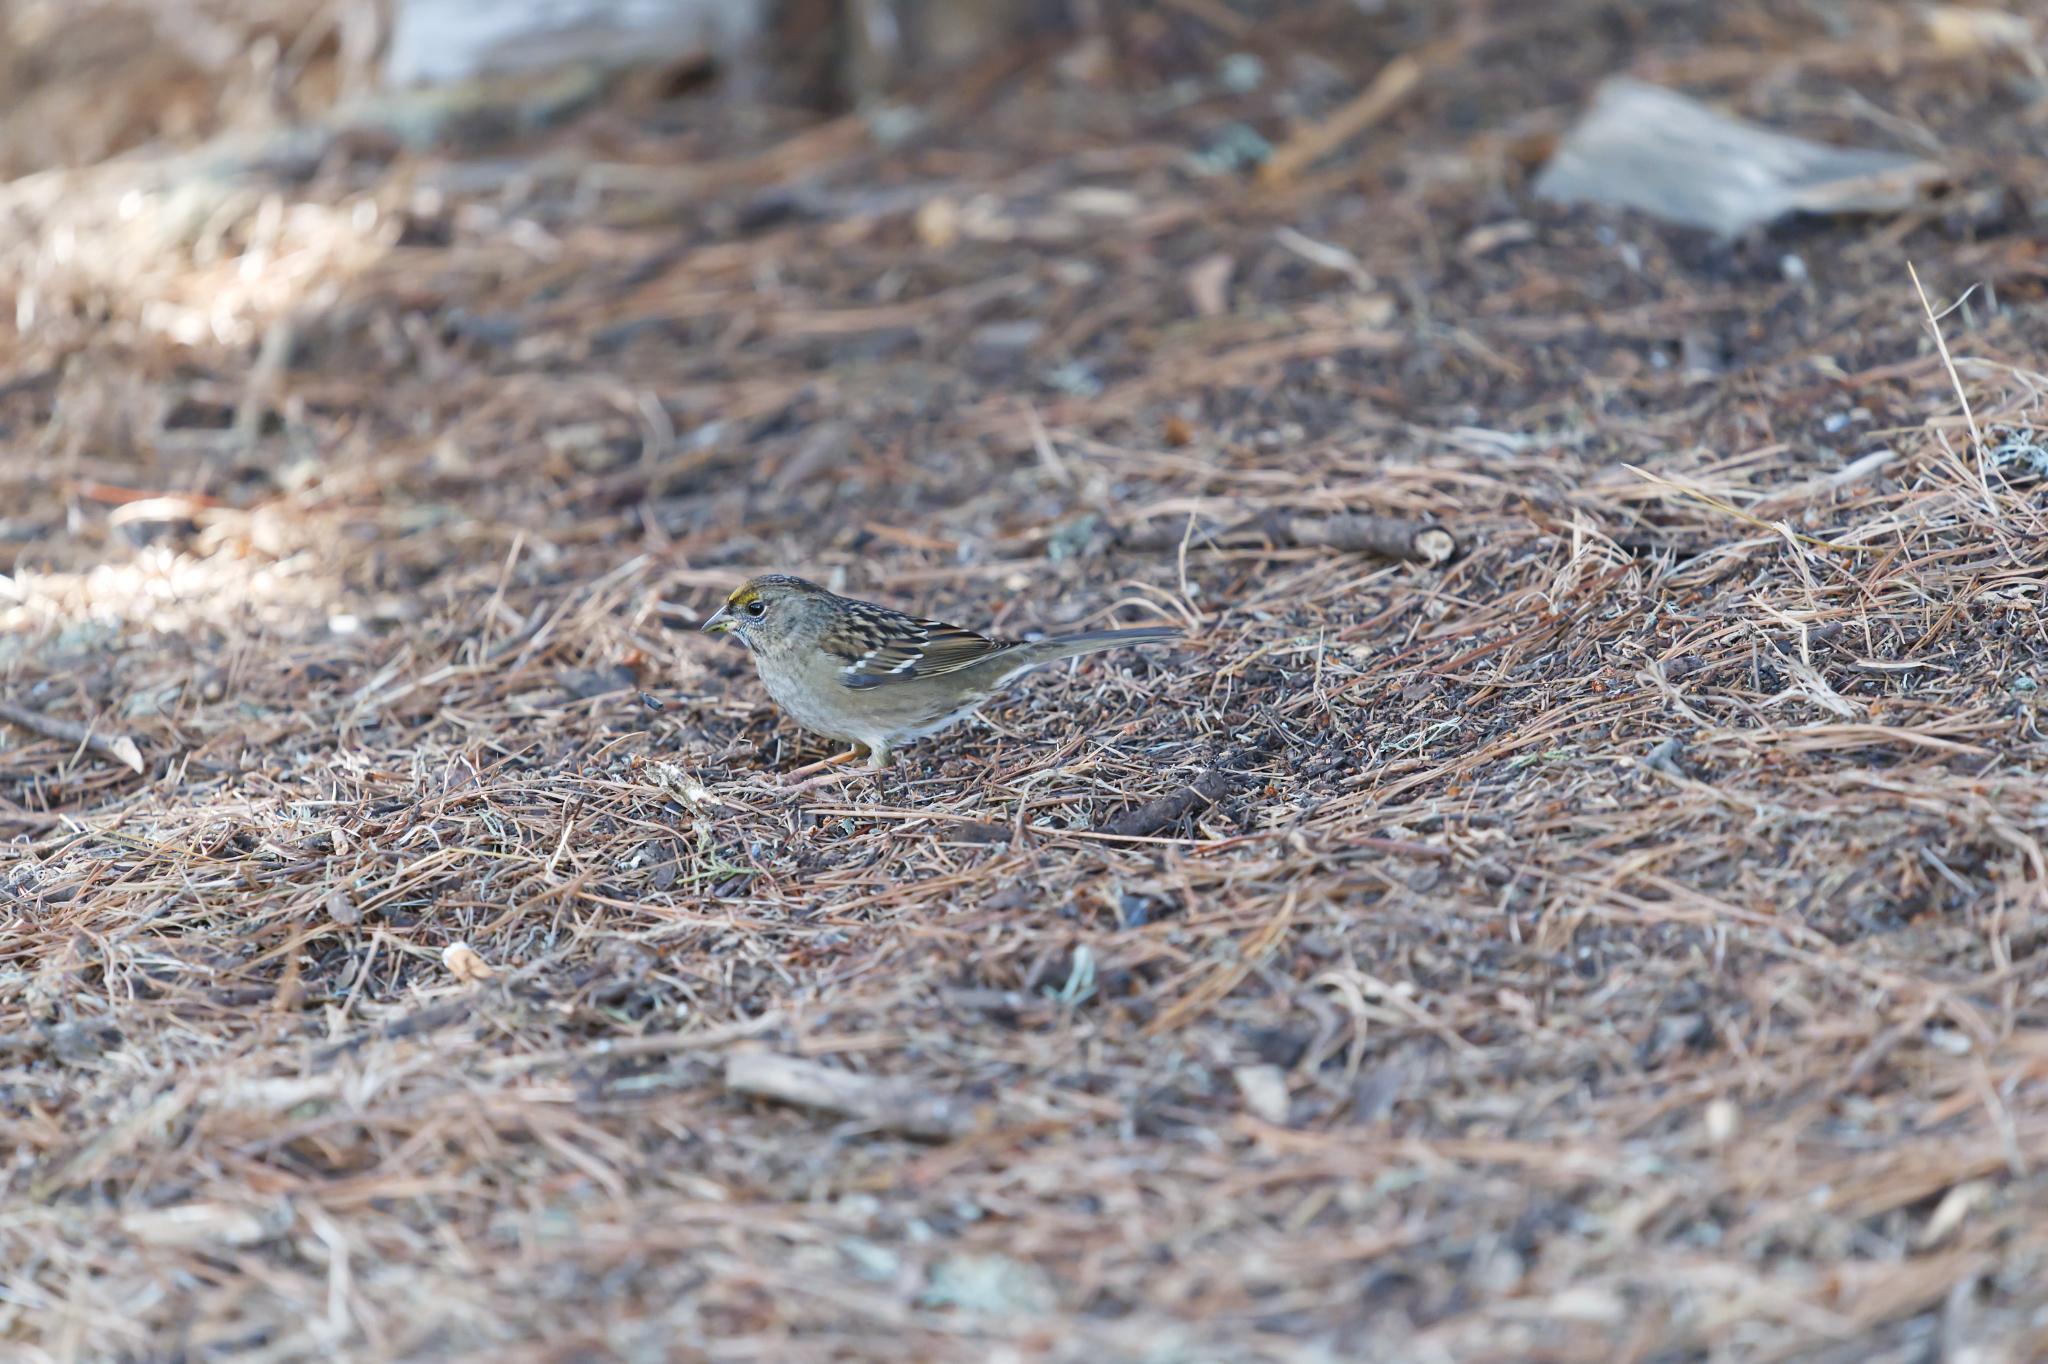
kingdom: Animalia
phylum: Chordata
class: Aves
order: Passeriformes
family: Passerellidae
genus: Zonotrichia
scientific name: Zonotrichia atricapilla
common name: Golden-crowned sparrow
